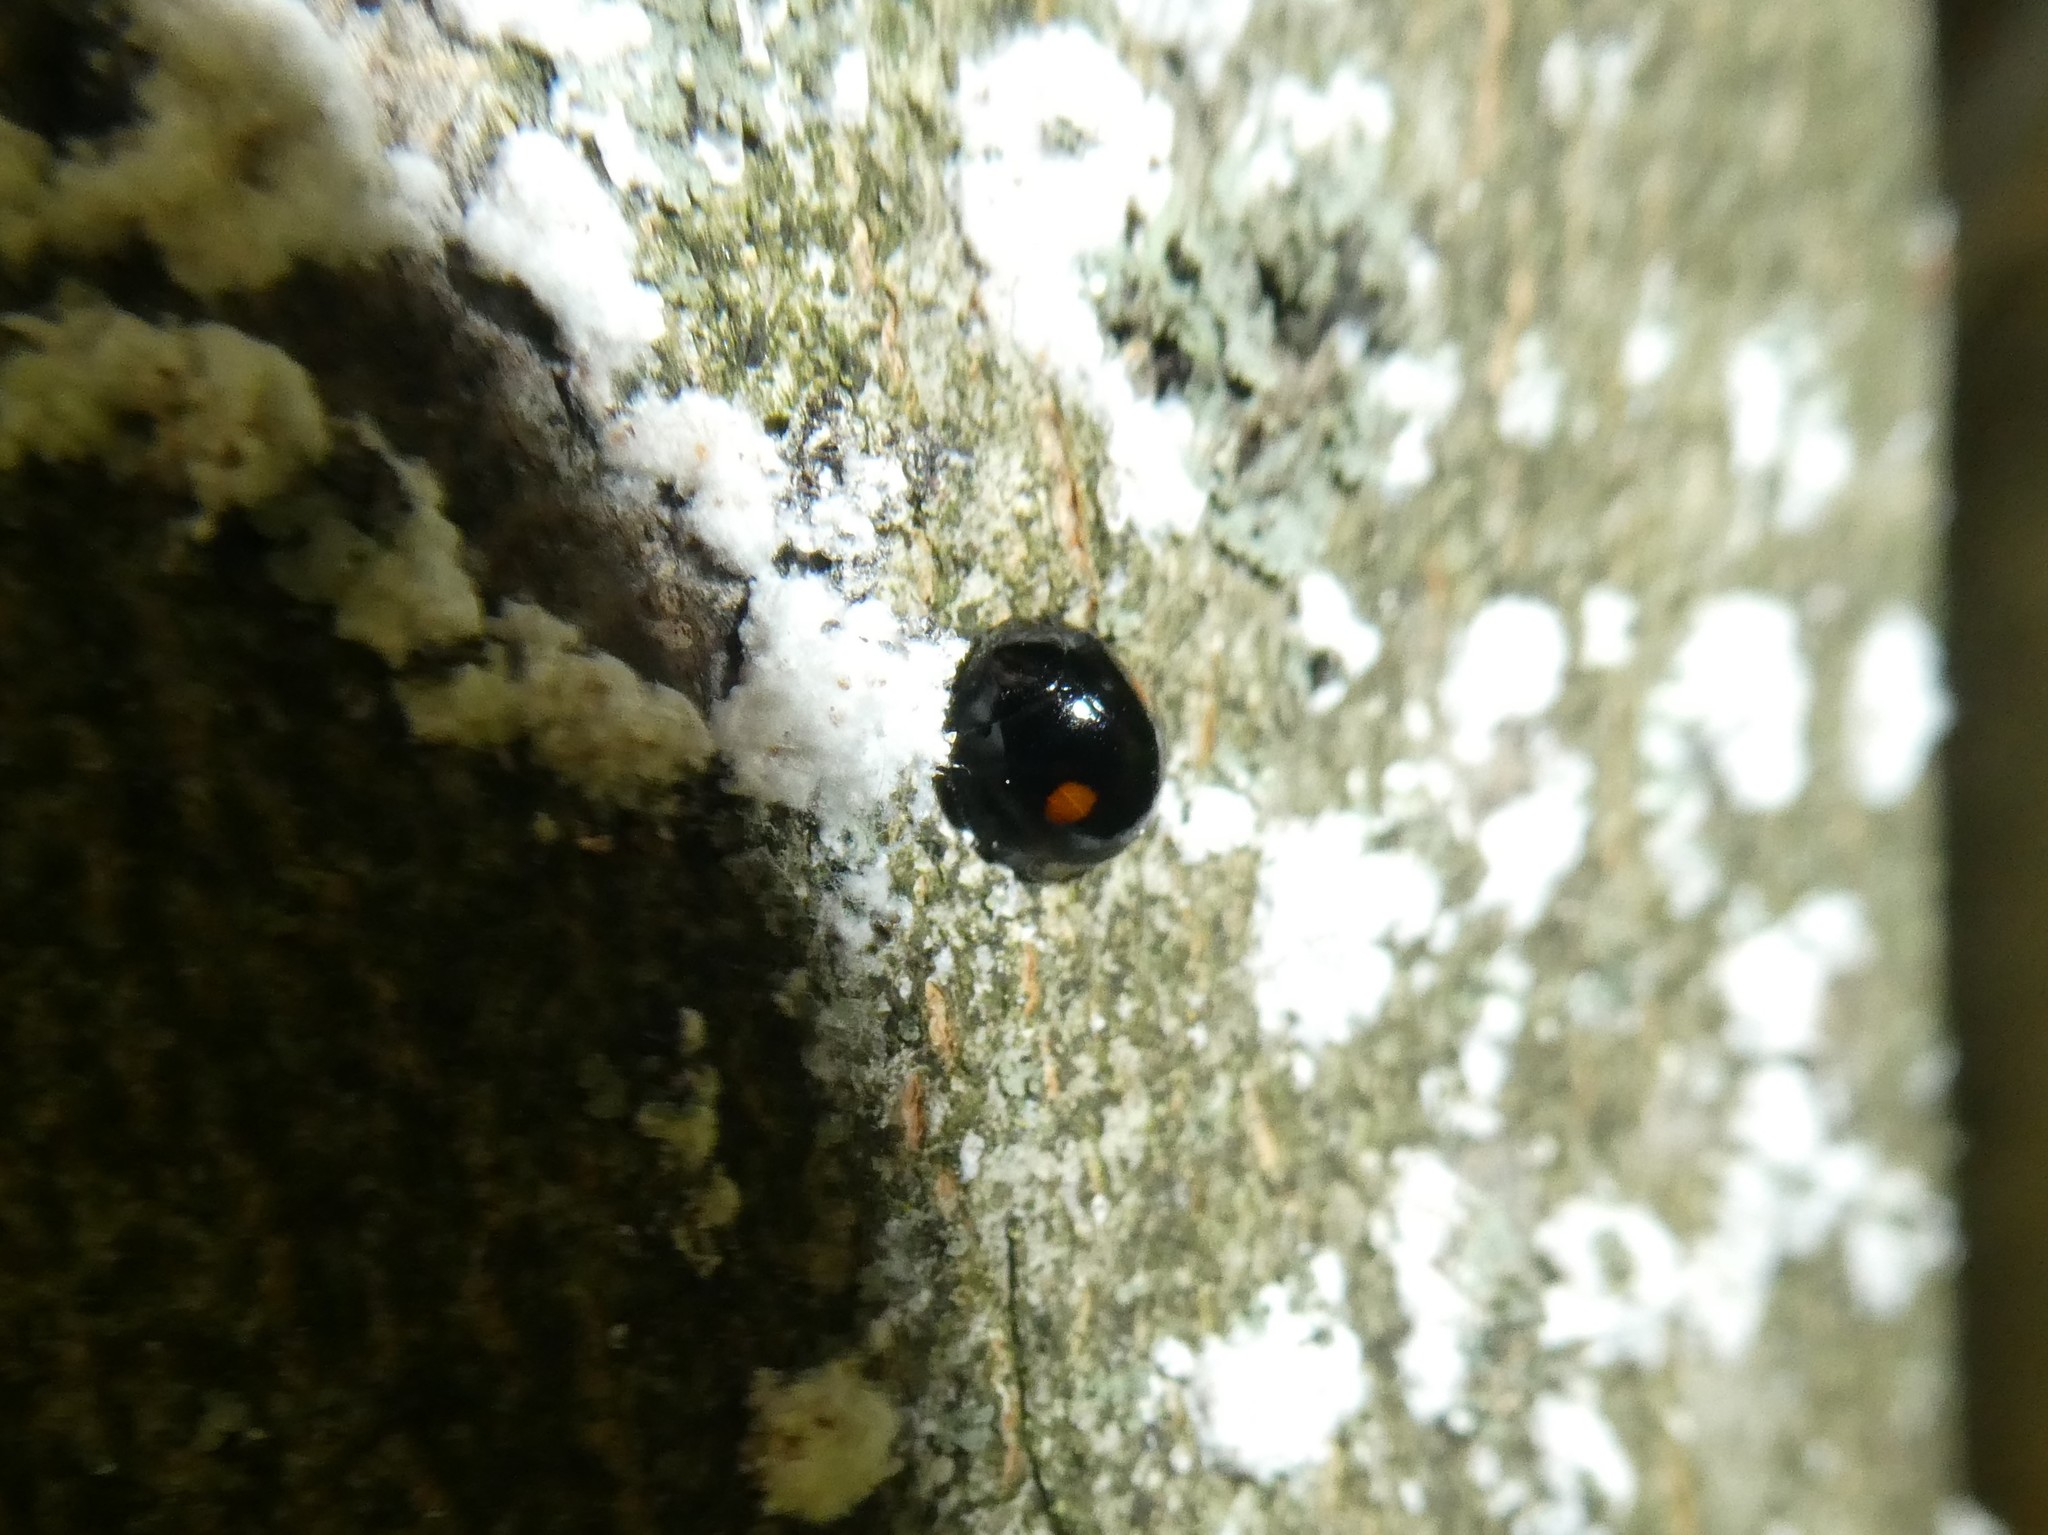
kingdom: Animalia
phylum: Arthropoda
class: Insecta
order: Coleoptera
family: Coccinellidae
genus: Chilocorus
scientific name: Chilocorus stigma
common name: Twicestabbed lady beetle
